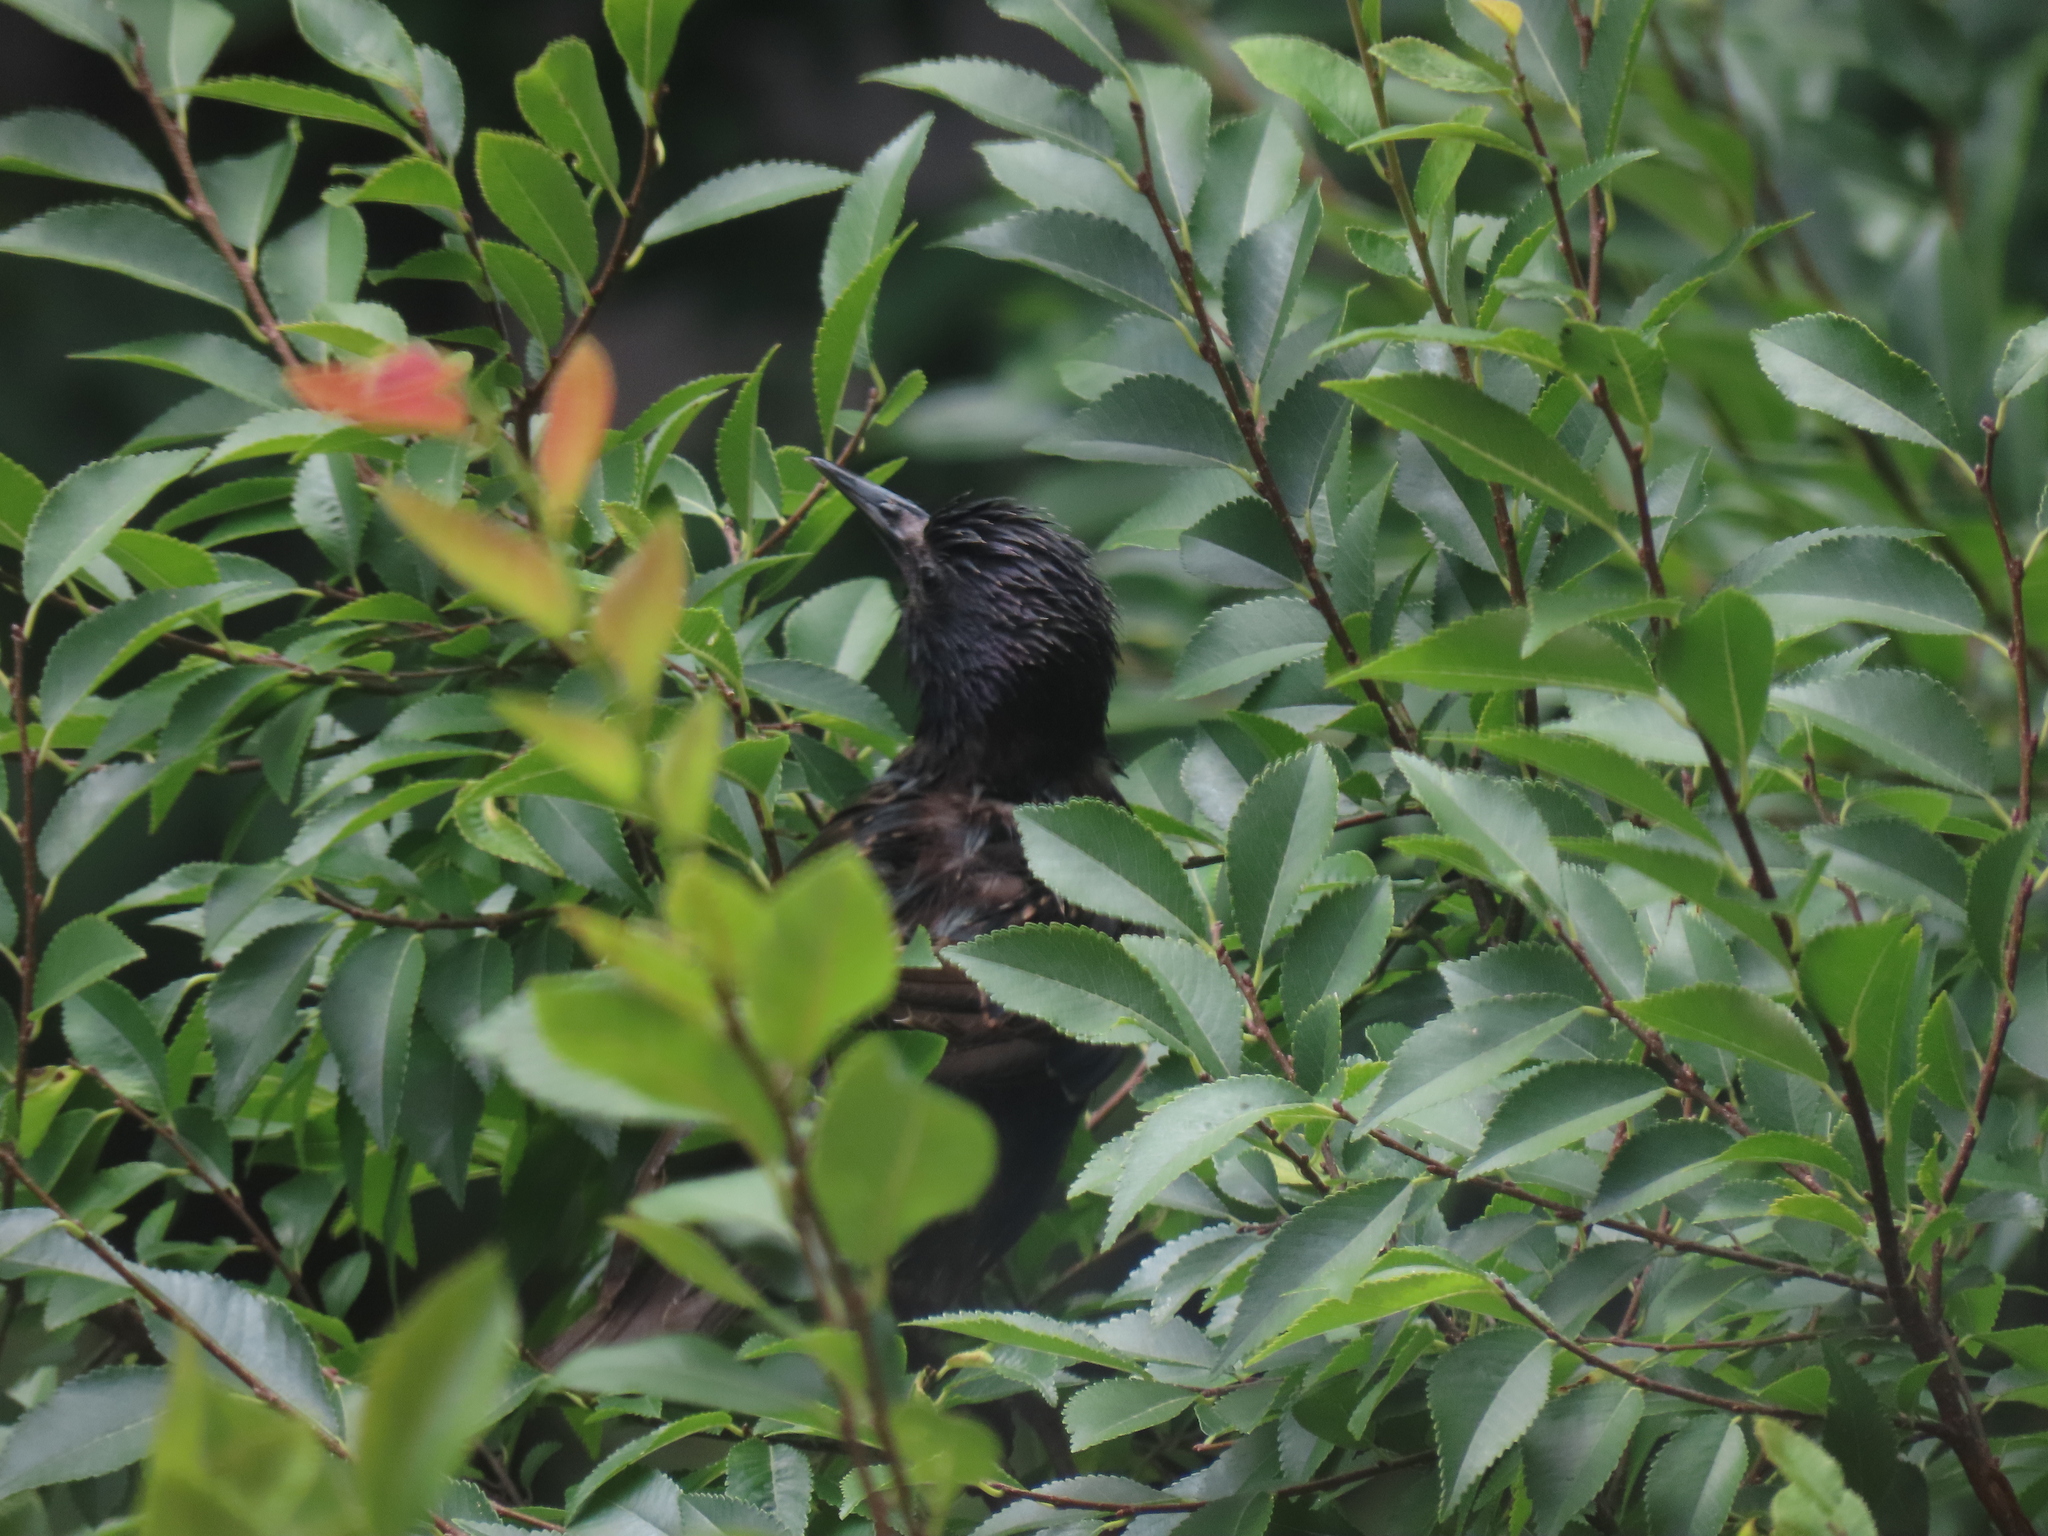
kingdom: Animalia
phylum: Chordata
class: Aves
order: Passeriformes
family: Sturnidae
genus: Sturnus
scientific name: Sturnus vulgaris
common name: Common starling
